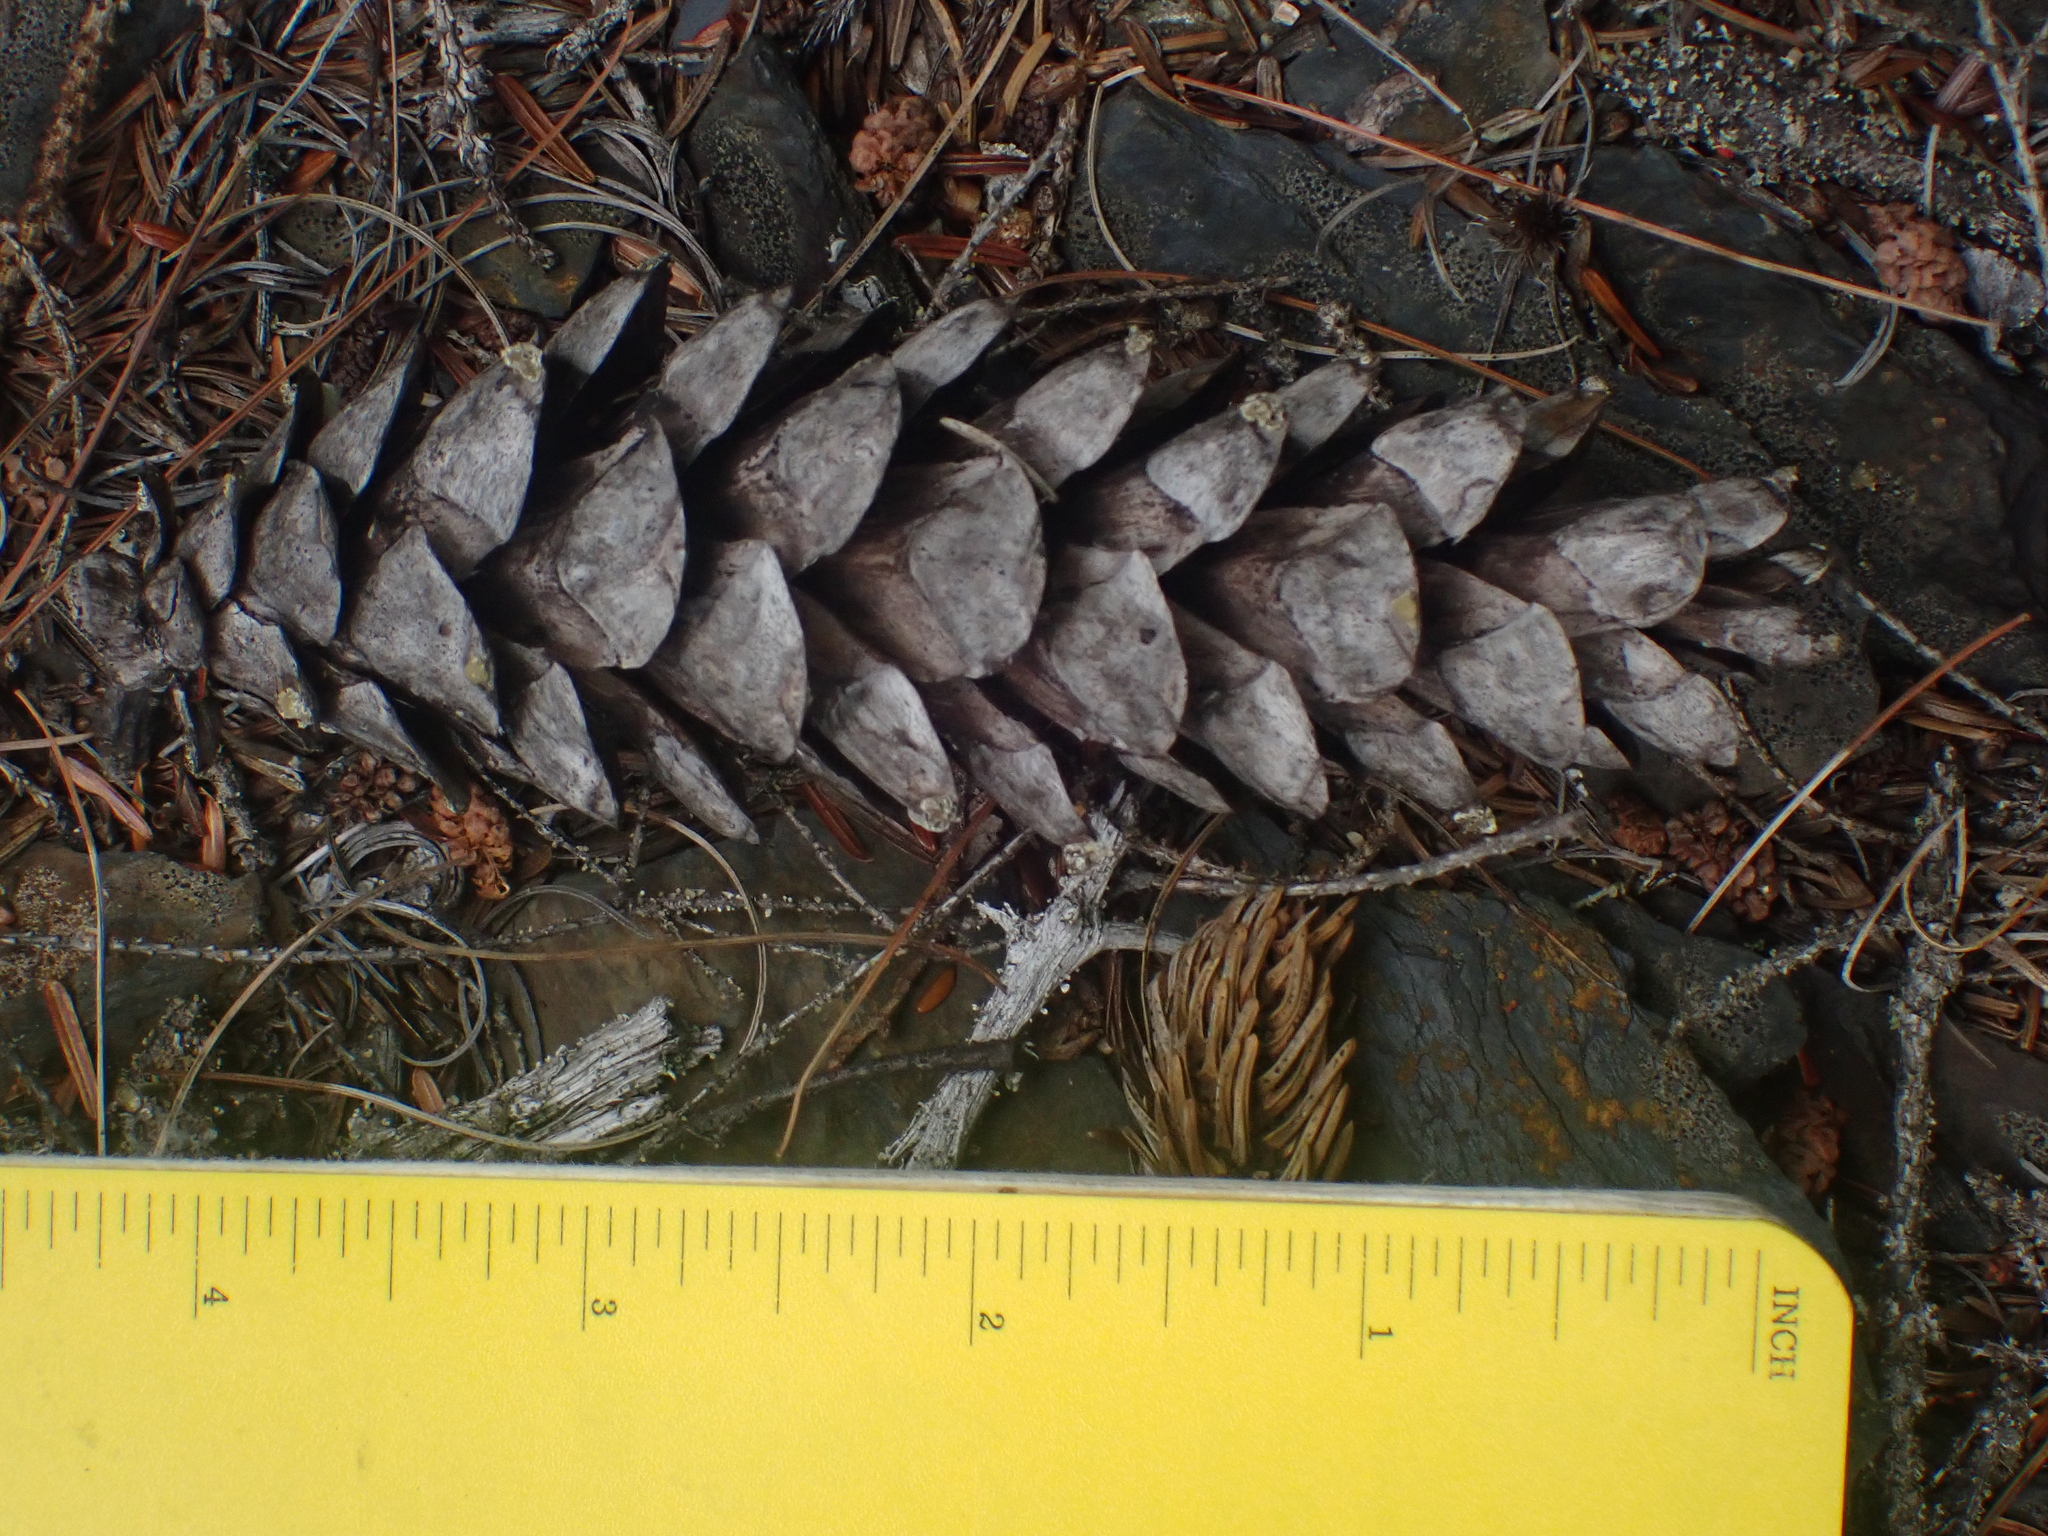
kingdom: Plantae
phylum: Tracheophyta
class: Pinopsida
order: Pinales
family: Pinaceae
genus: Pinus
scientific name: Pinus strobus
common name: Weymouth pine
